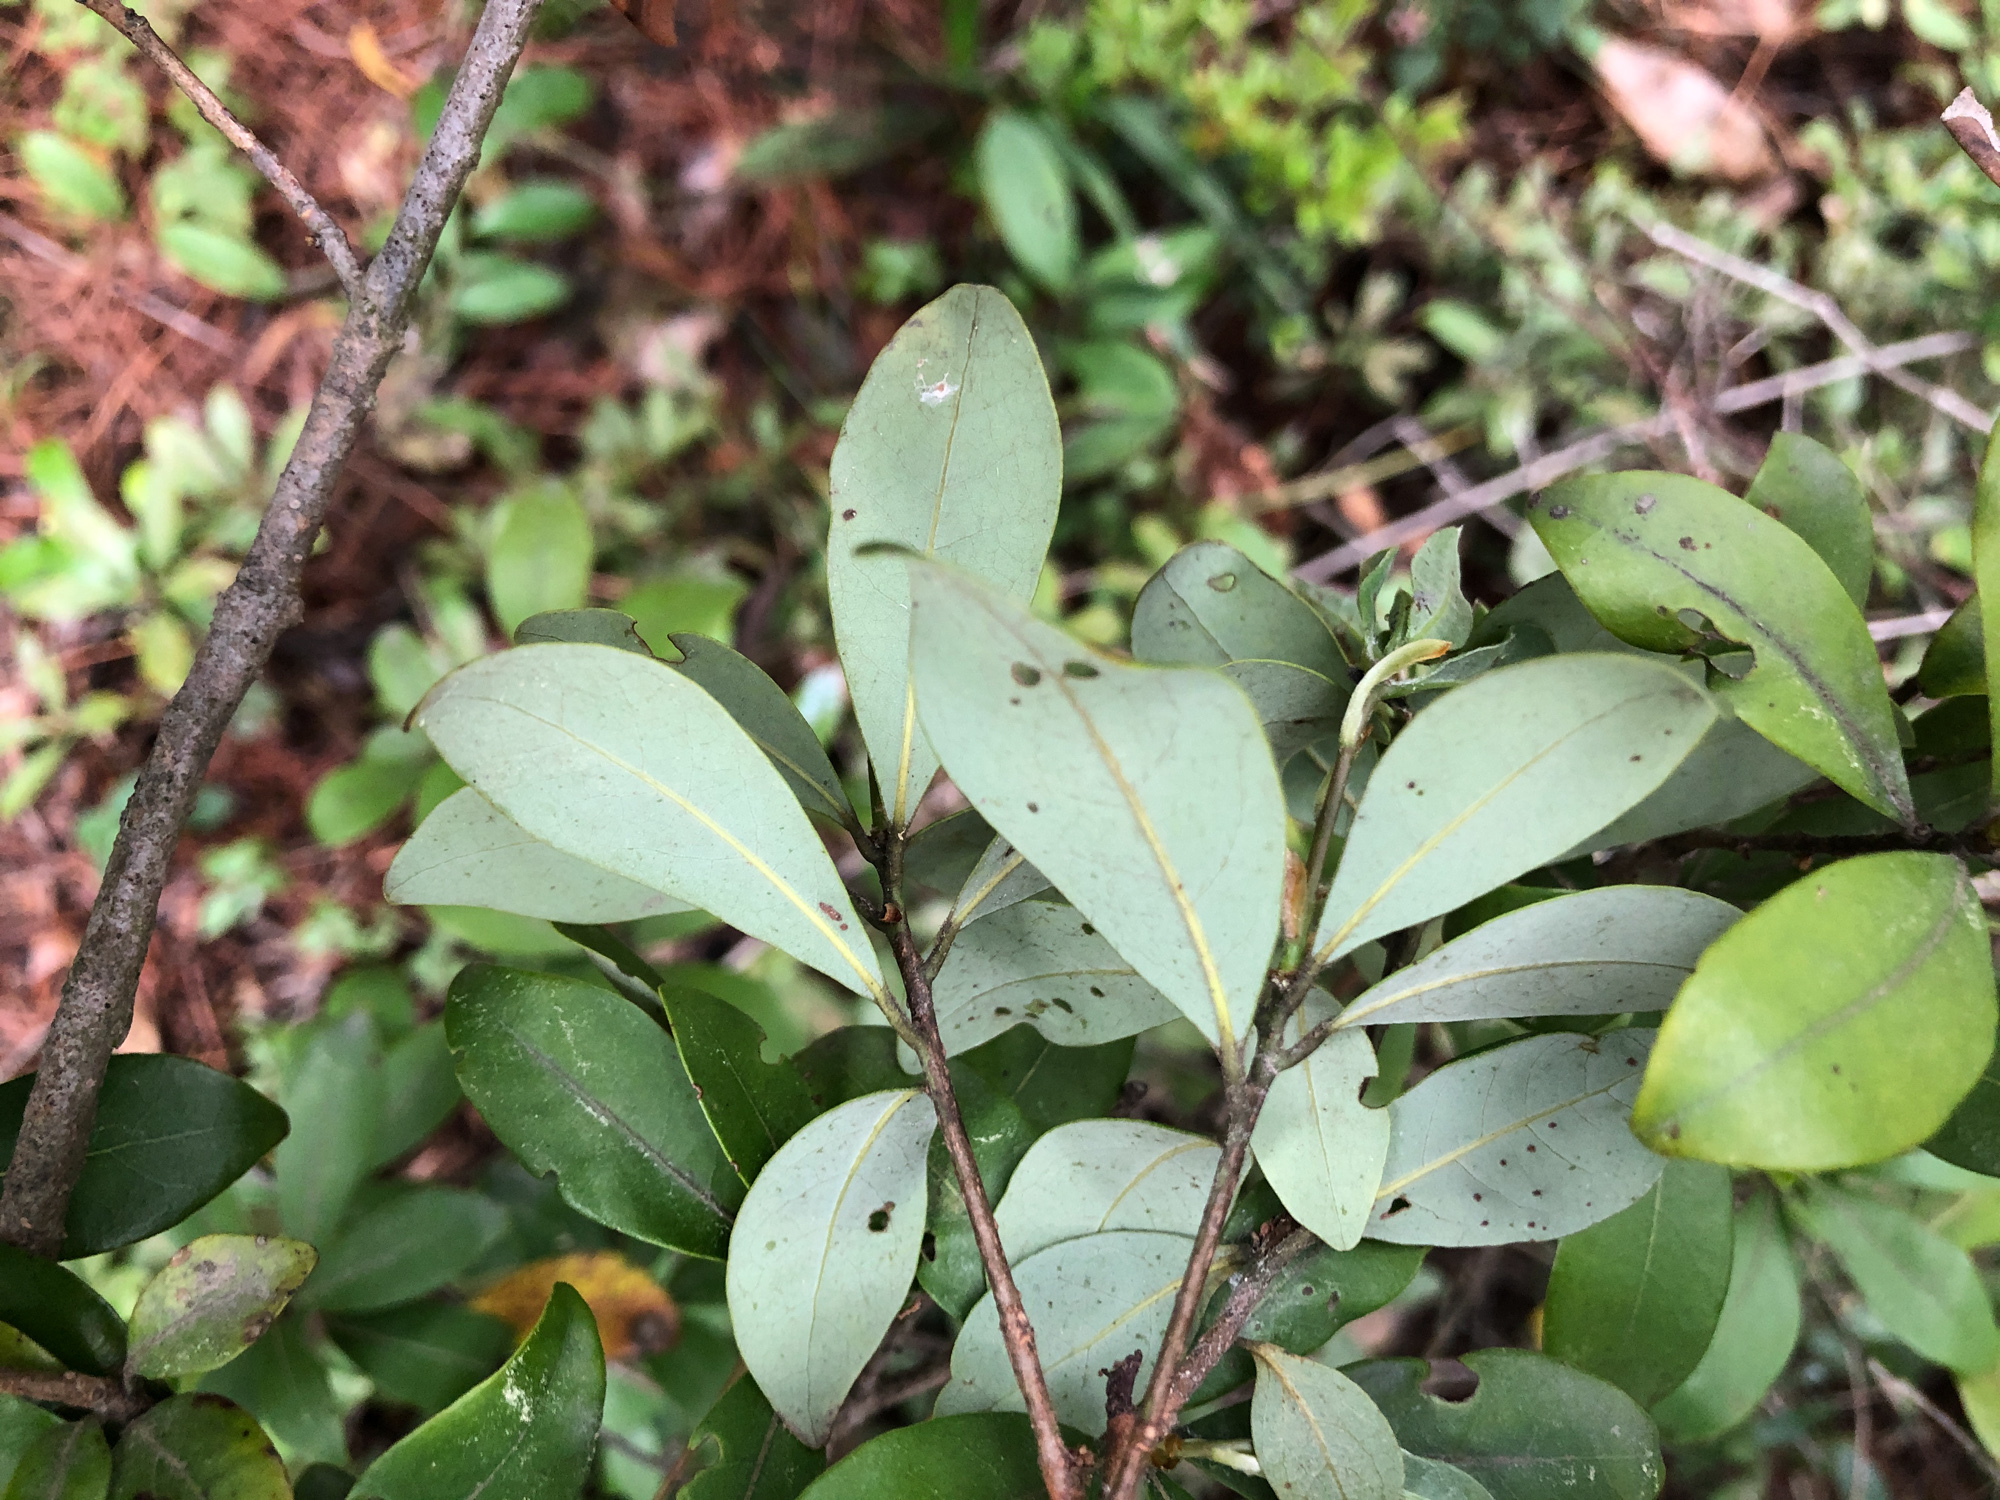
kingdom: Plantae
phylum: Tracheophyta
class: Magnoliopsida
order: Laurales
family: Lauraceae
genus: Litsea
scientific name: Litsea rotundifolia
